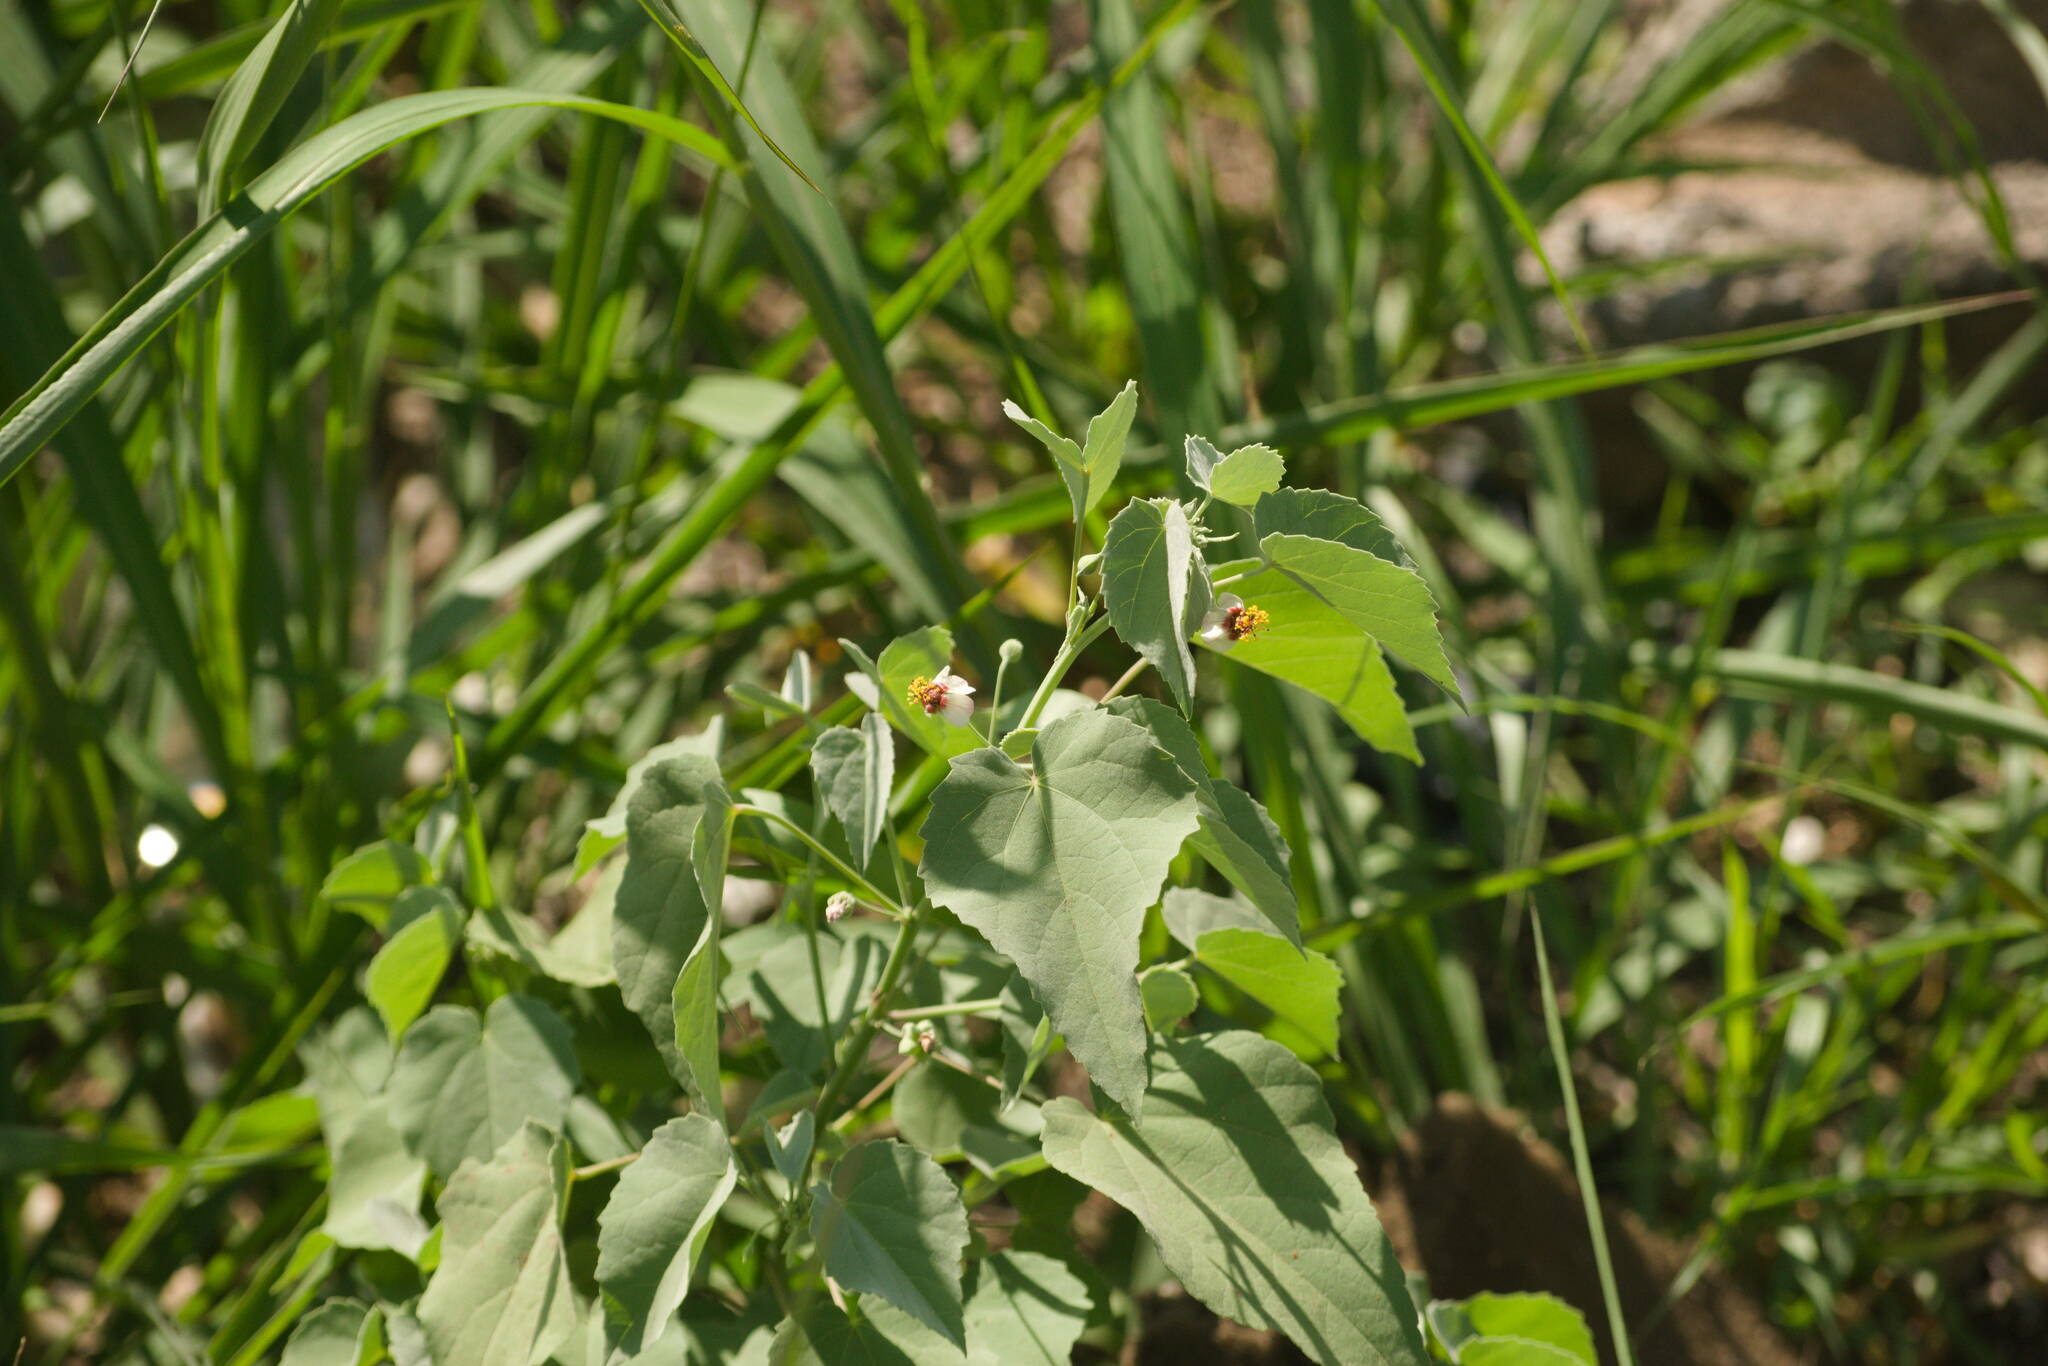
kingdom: Plantae
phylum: Tracheophyta
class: Magnoliopsida
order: Malvales
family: Malvaceae
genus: Abutilon
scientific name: Abutilon incanum
